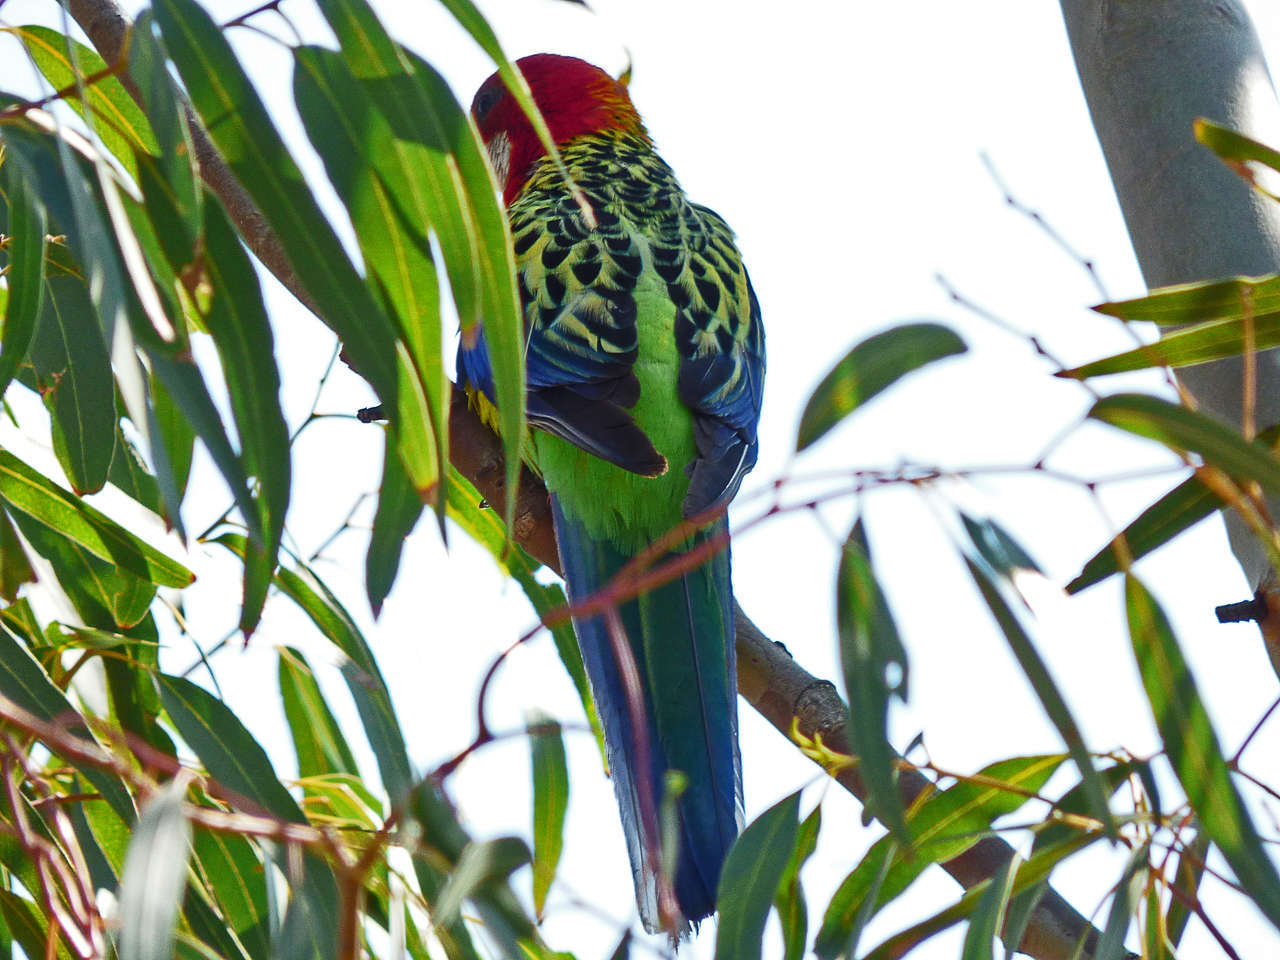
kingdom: Animalia
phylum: Chordata
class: Aves
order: Psittaciformes
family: Psittacidae
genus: Platycercus
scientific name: Platycercus eximius
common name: Eastern rosella
